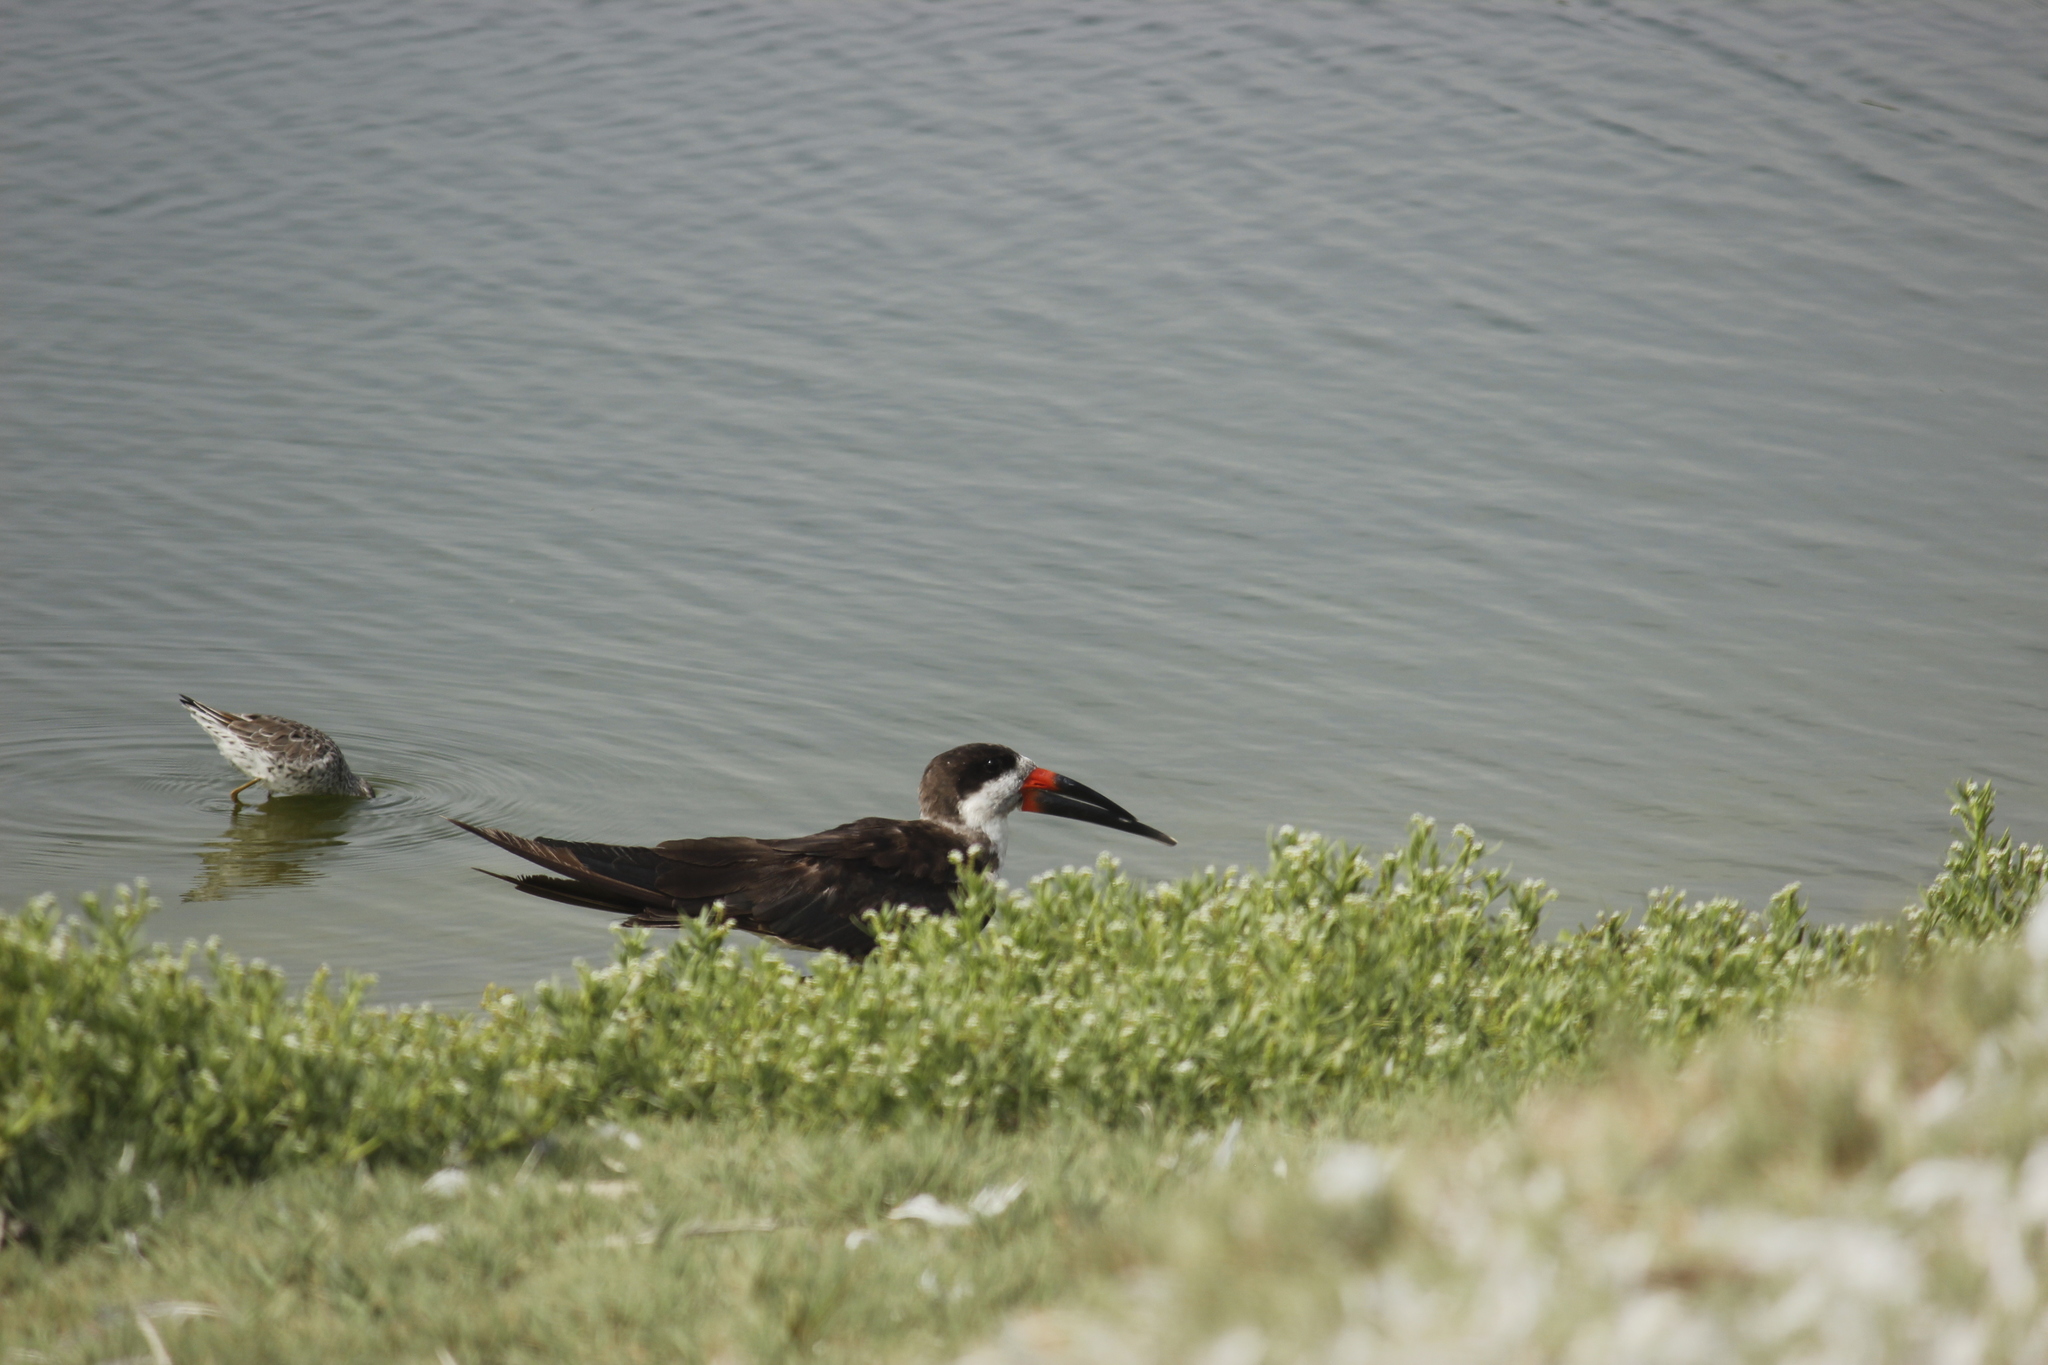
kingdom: Animalia
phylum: Chordata
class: Aves
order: Charadriiformes
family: Laridae
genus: Rynchops
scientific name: Rynchops niger
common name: Black skimmer
